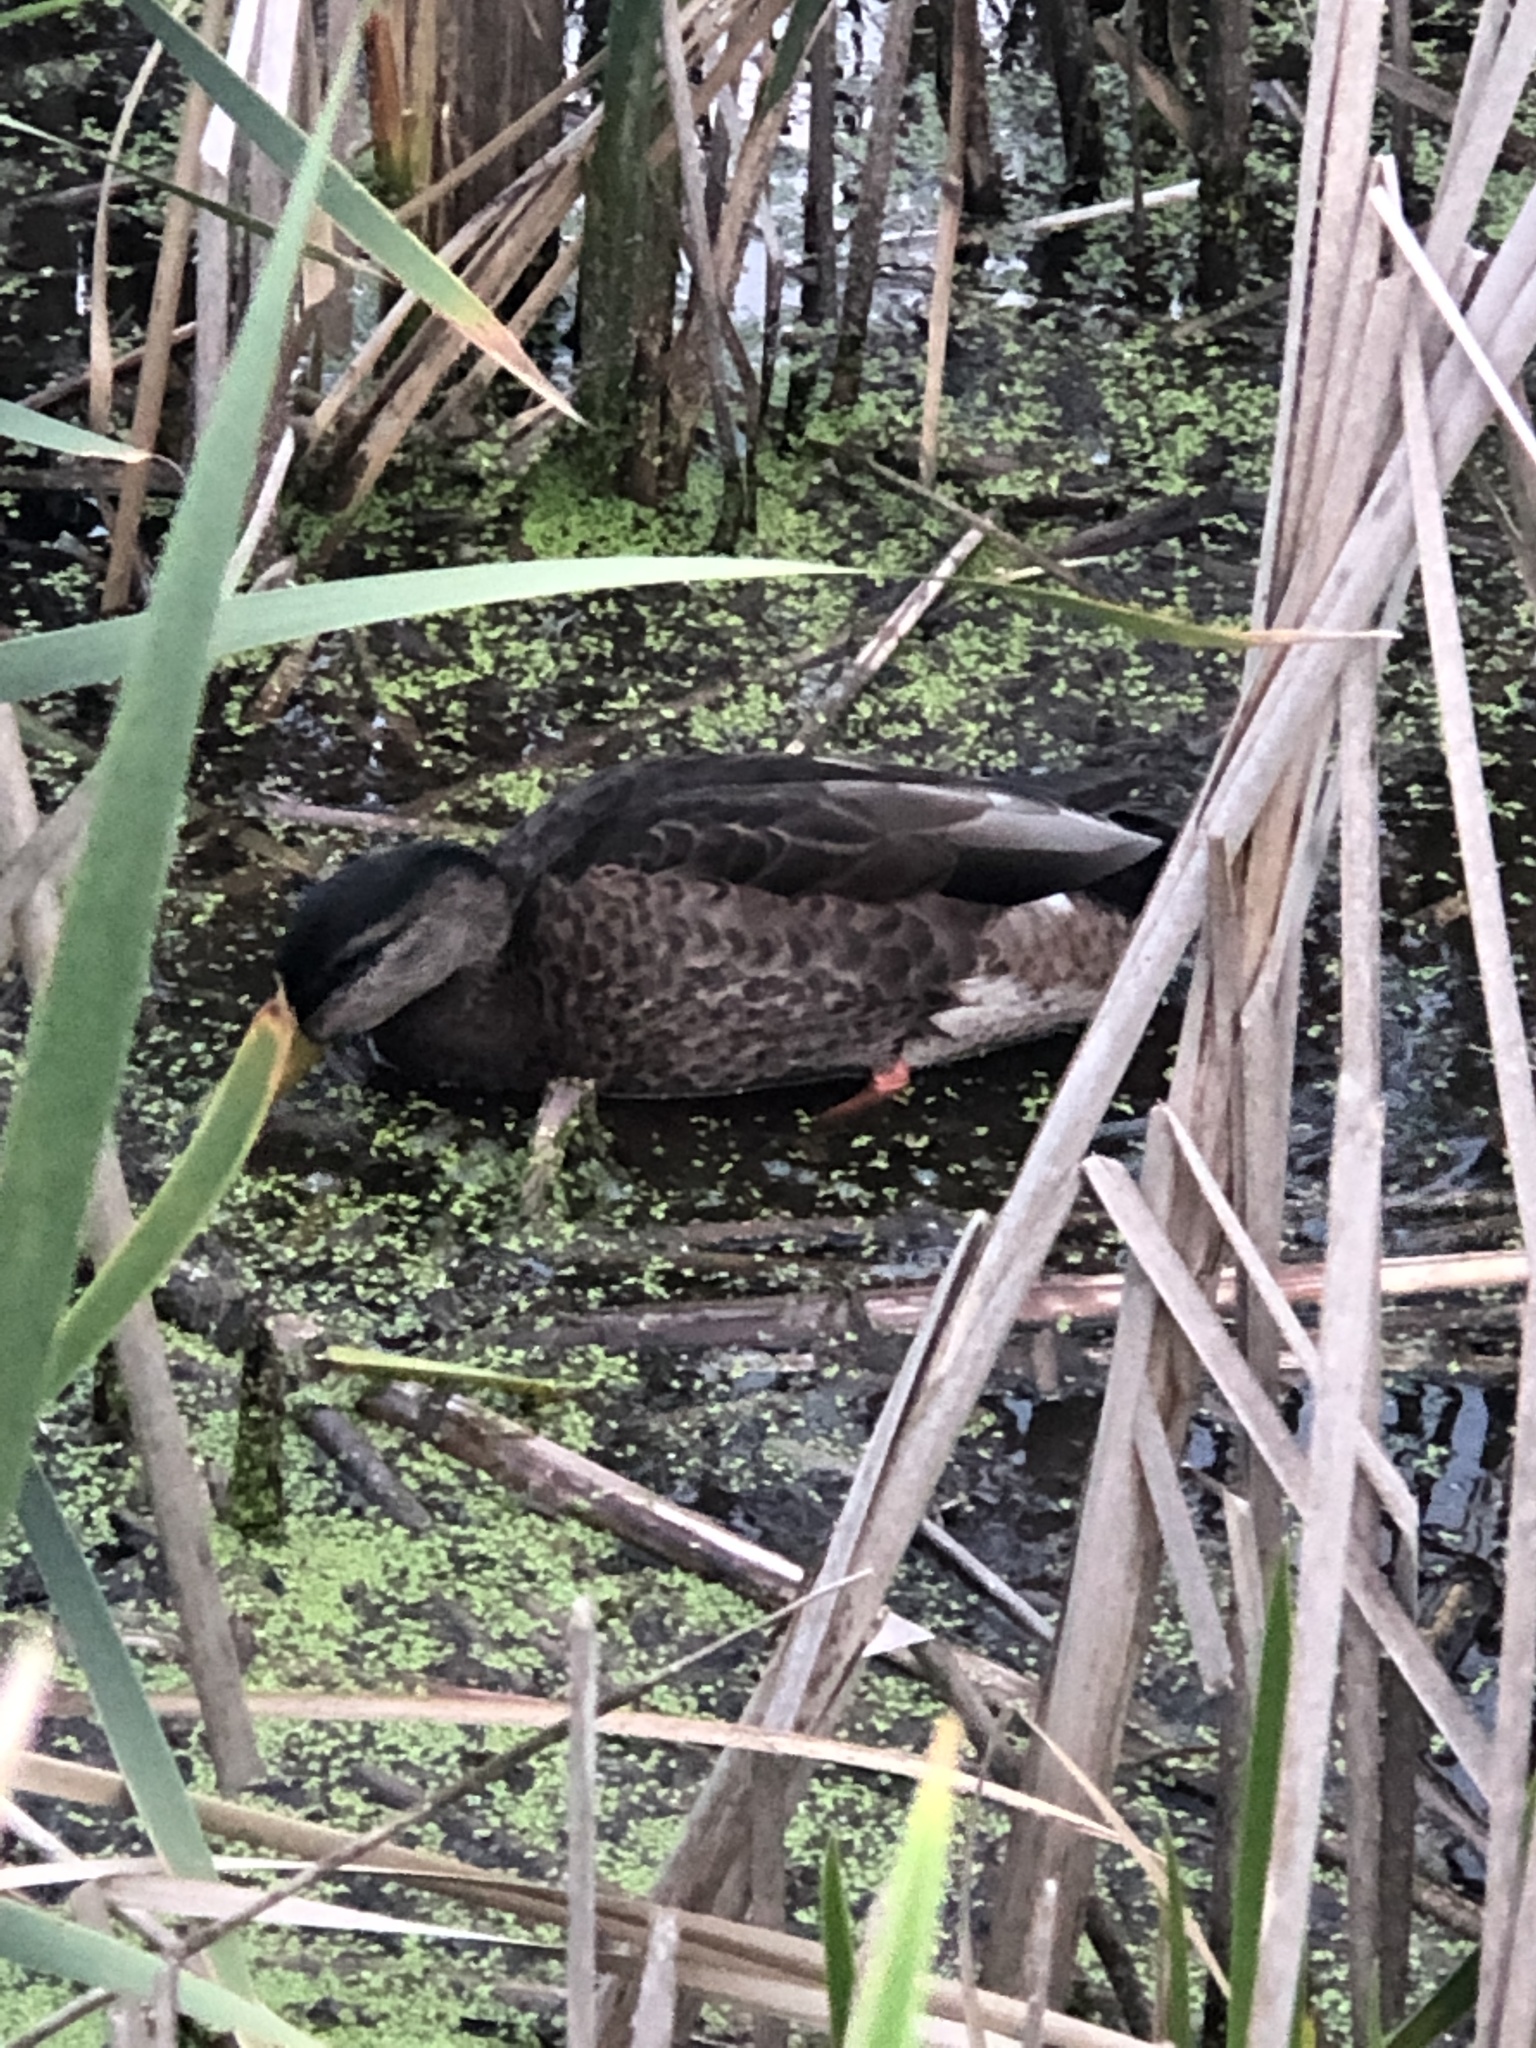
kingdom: Animalia
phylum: Chordata
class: Aves
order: Anseriformes
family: Anatidae
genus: Anas
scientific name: Anas platyrhynchos
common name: Mallard
